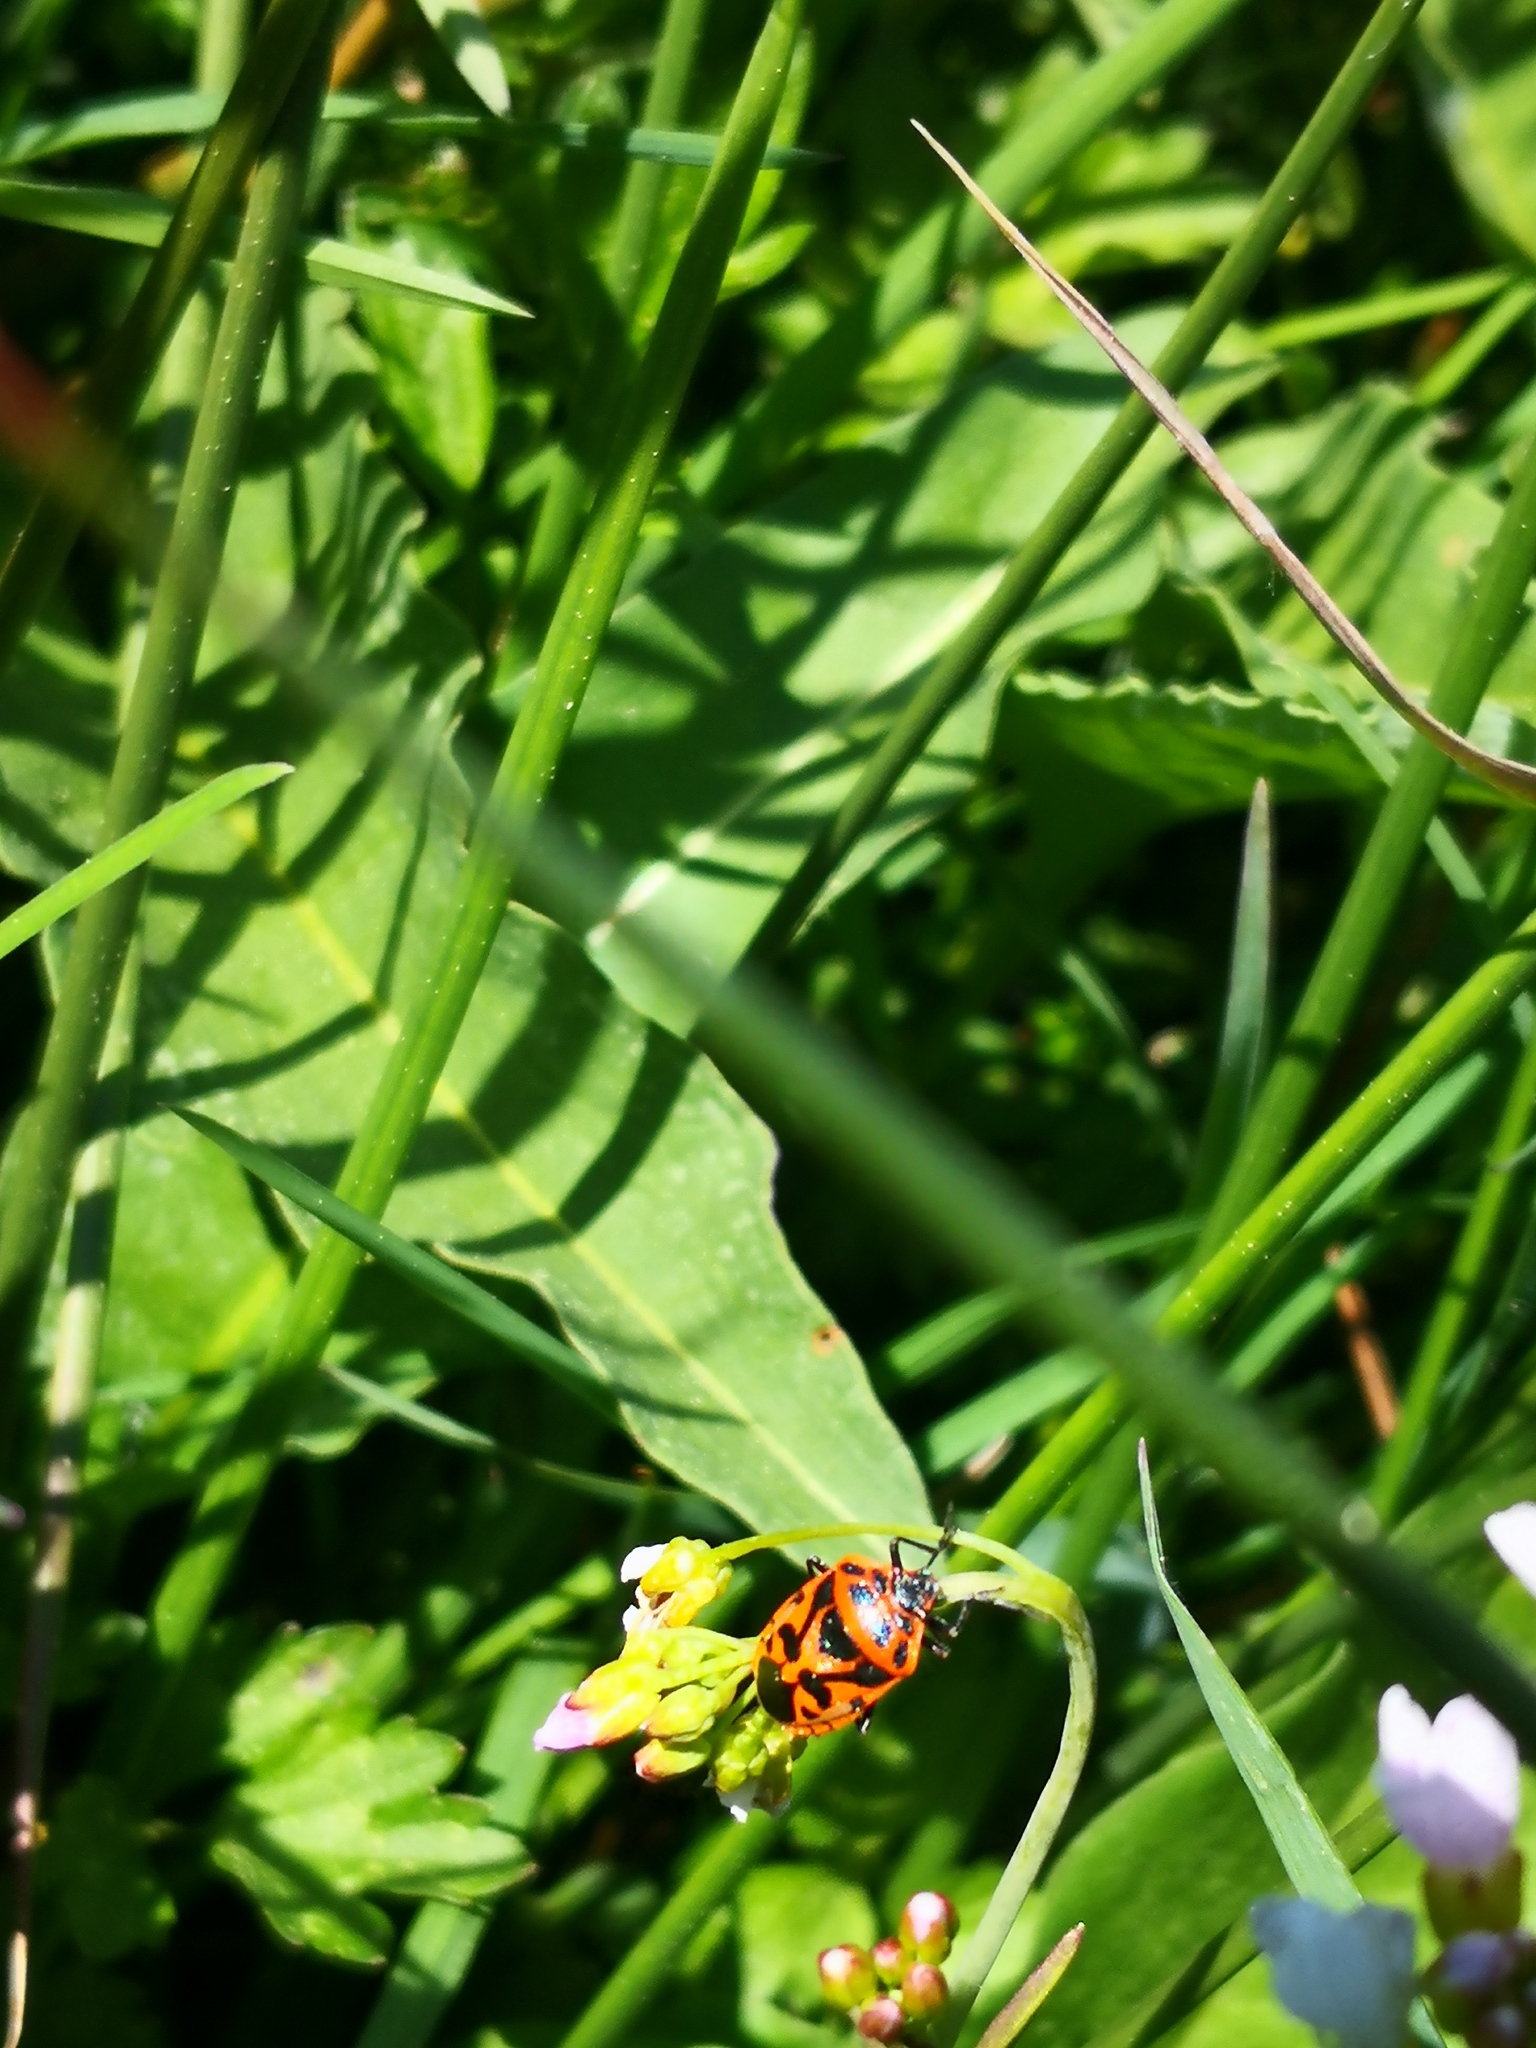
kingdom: Animalia
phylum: Arthropoda
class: Insecta
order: Hemiptera
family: Pentatomidae
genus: Eurydema
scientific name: Eurydema ornata
